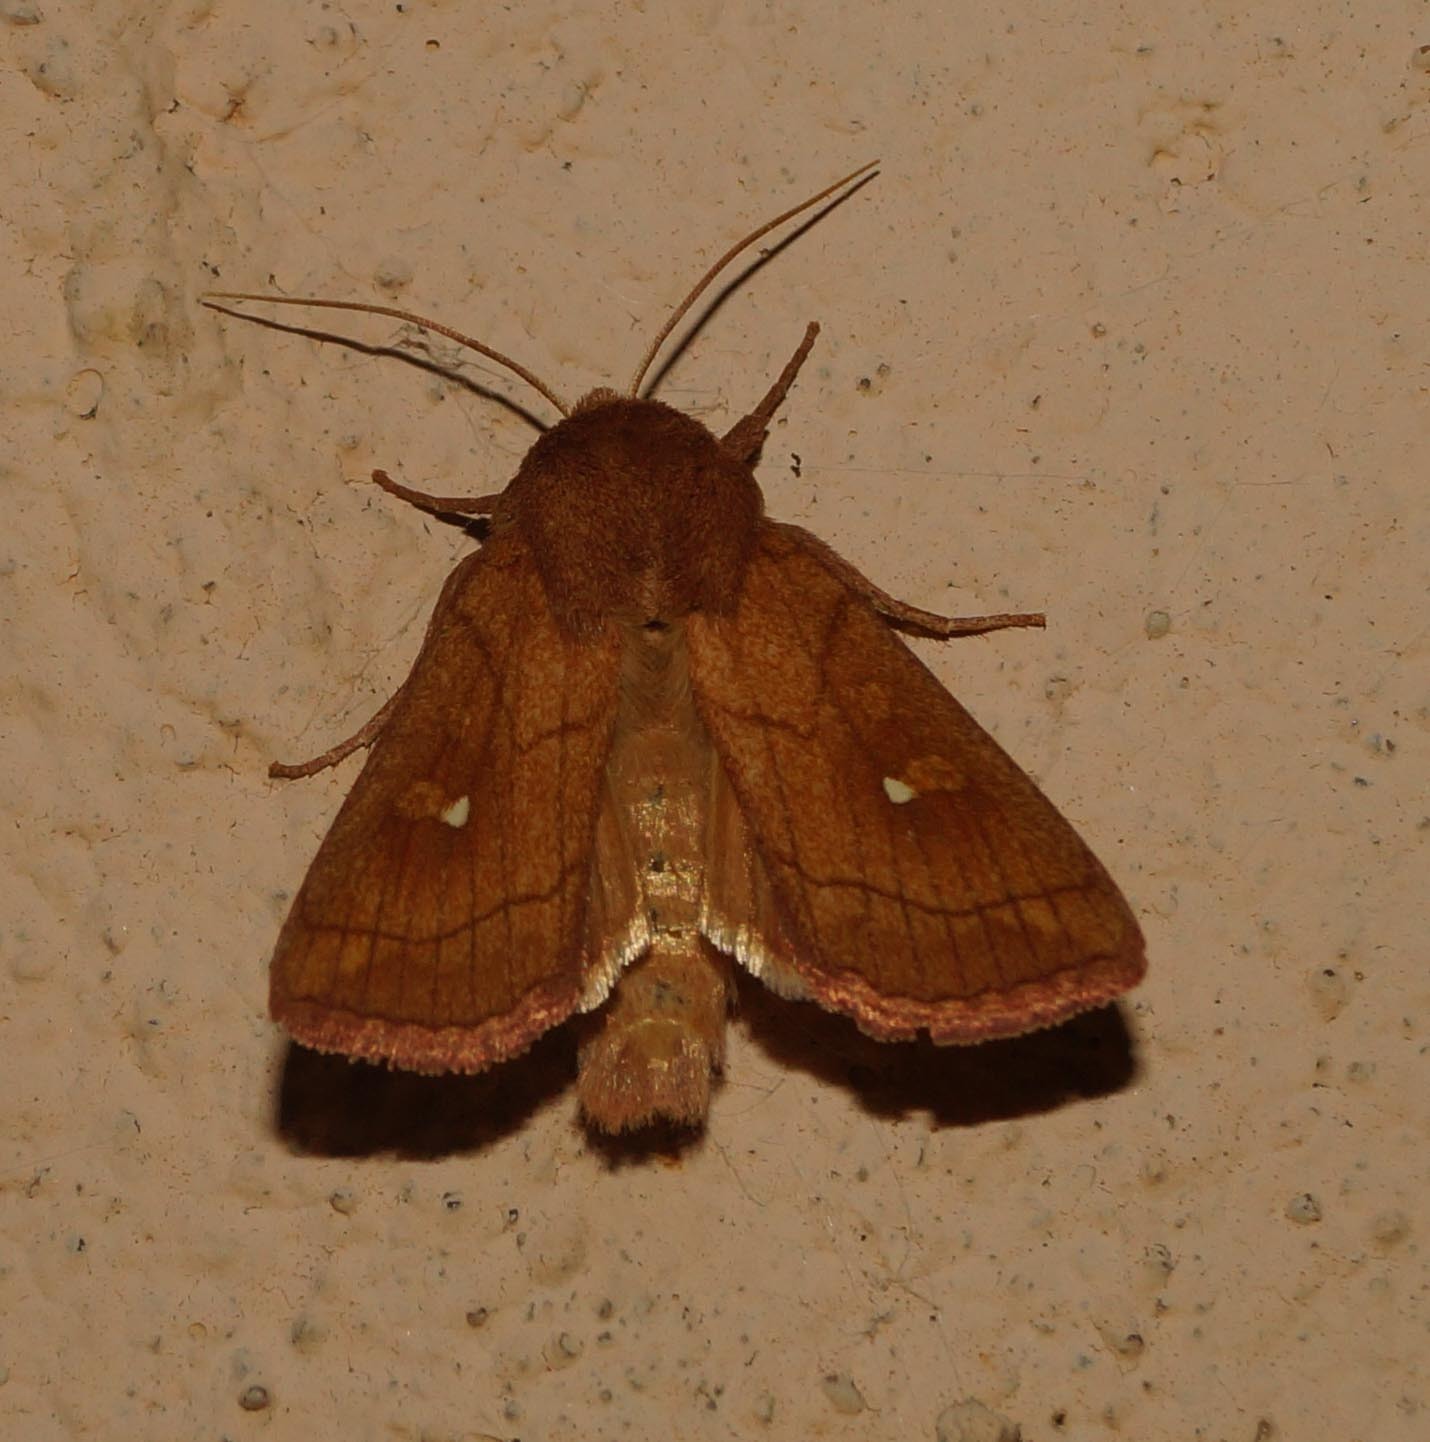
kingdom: Animalia
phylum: Arthropoda
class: Insecta
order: Lepidoptera
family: Noctuidae
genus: Mythimna
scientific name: Mythimna conigera
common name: Brown-line bright-eye
